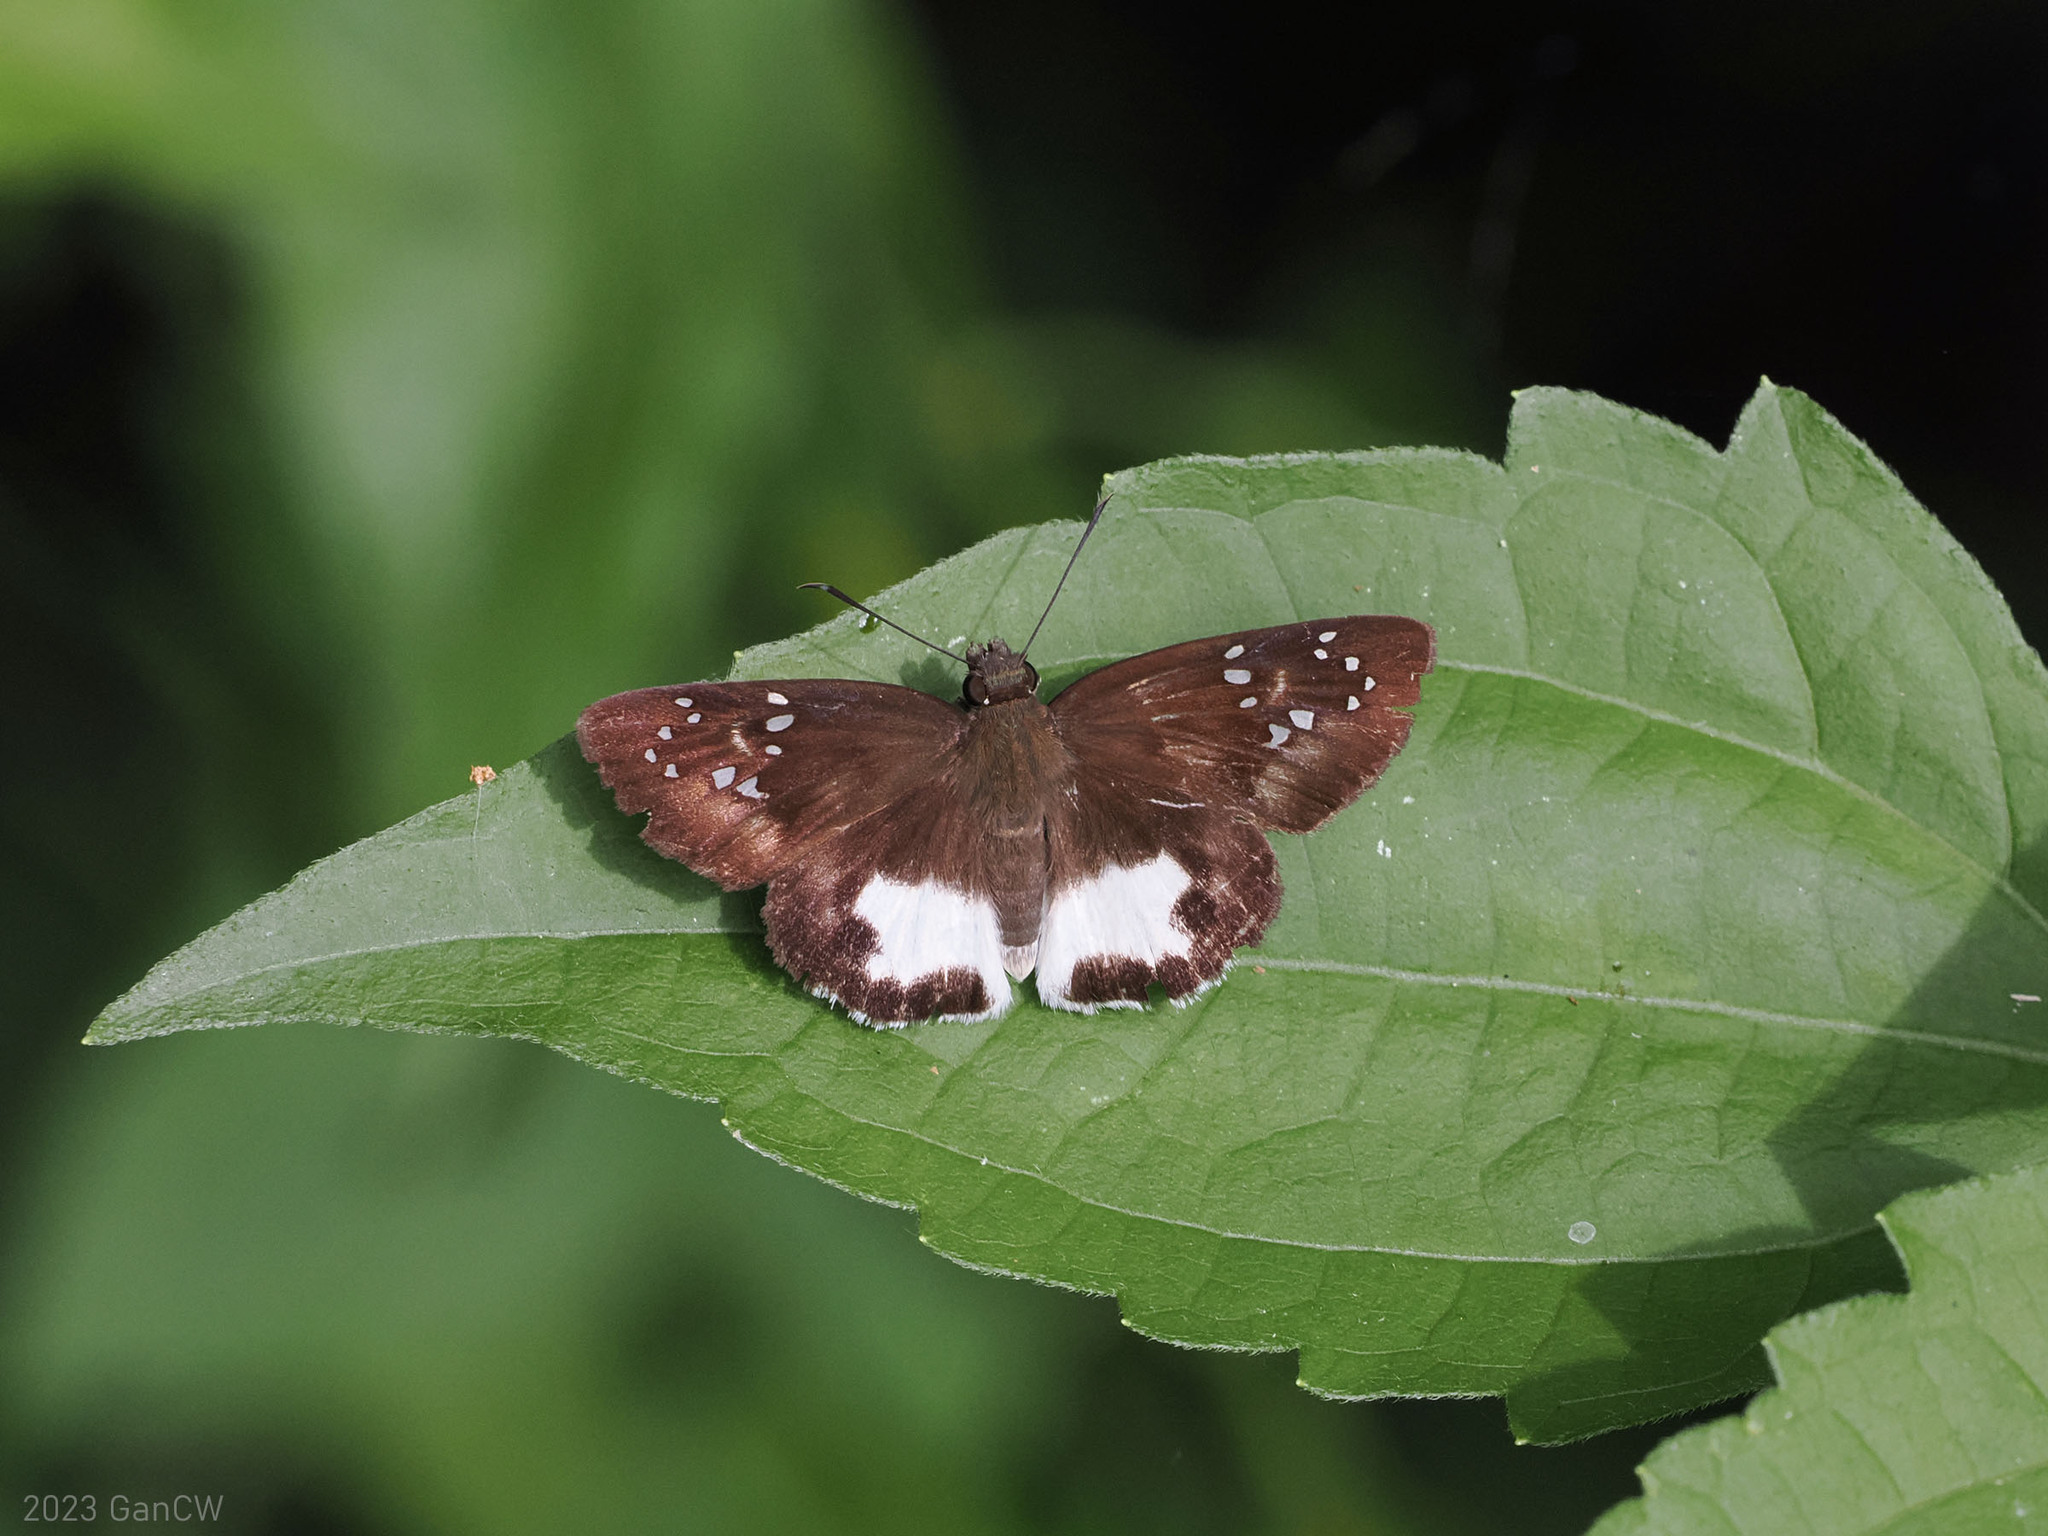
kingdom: Animalia
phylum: Arthropoda
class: Insecta
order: Lepidoptera
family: Hesperiidae
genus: Tagiades
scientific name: Tagiades trebellius
